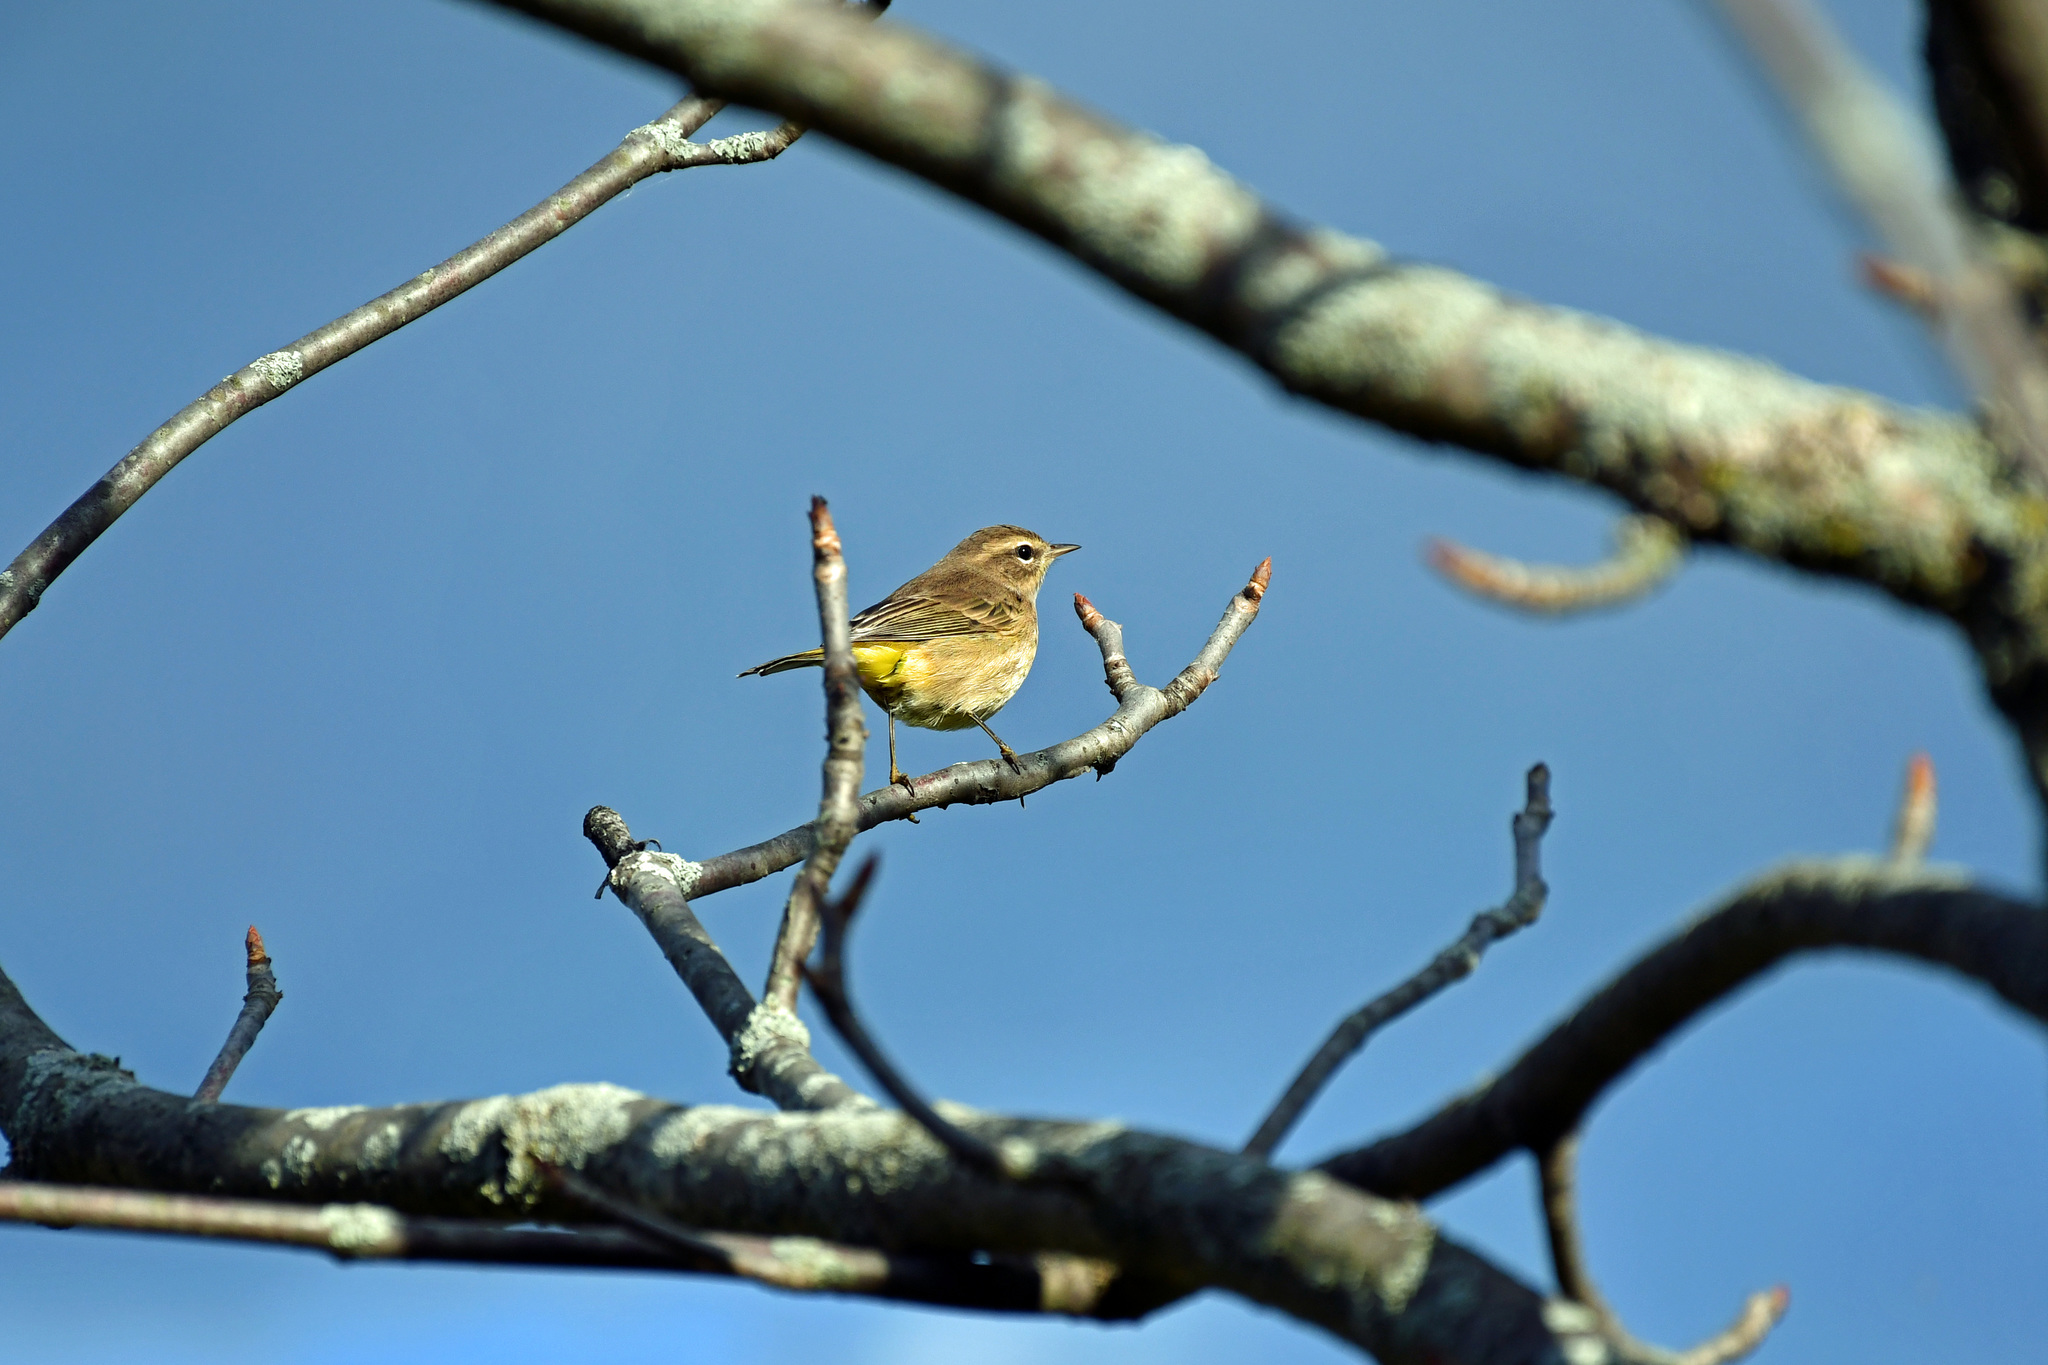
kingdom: Animalia
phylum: Chordata
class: Aves
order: Passeriformes
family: Parulidae
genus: Setophaga
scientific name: Setophaga palmarum
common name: Palm warbler
